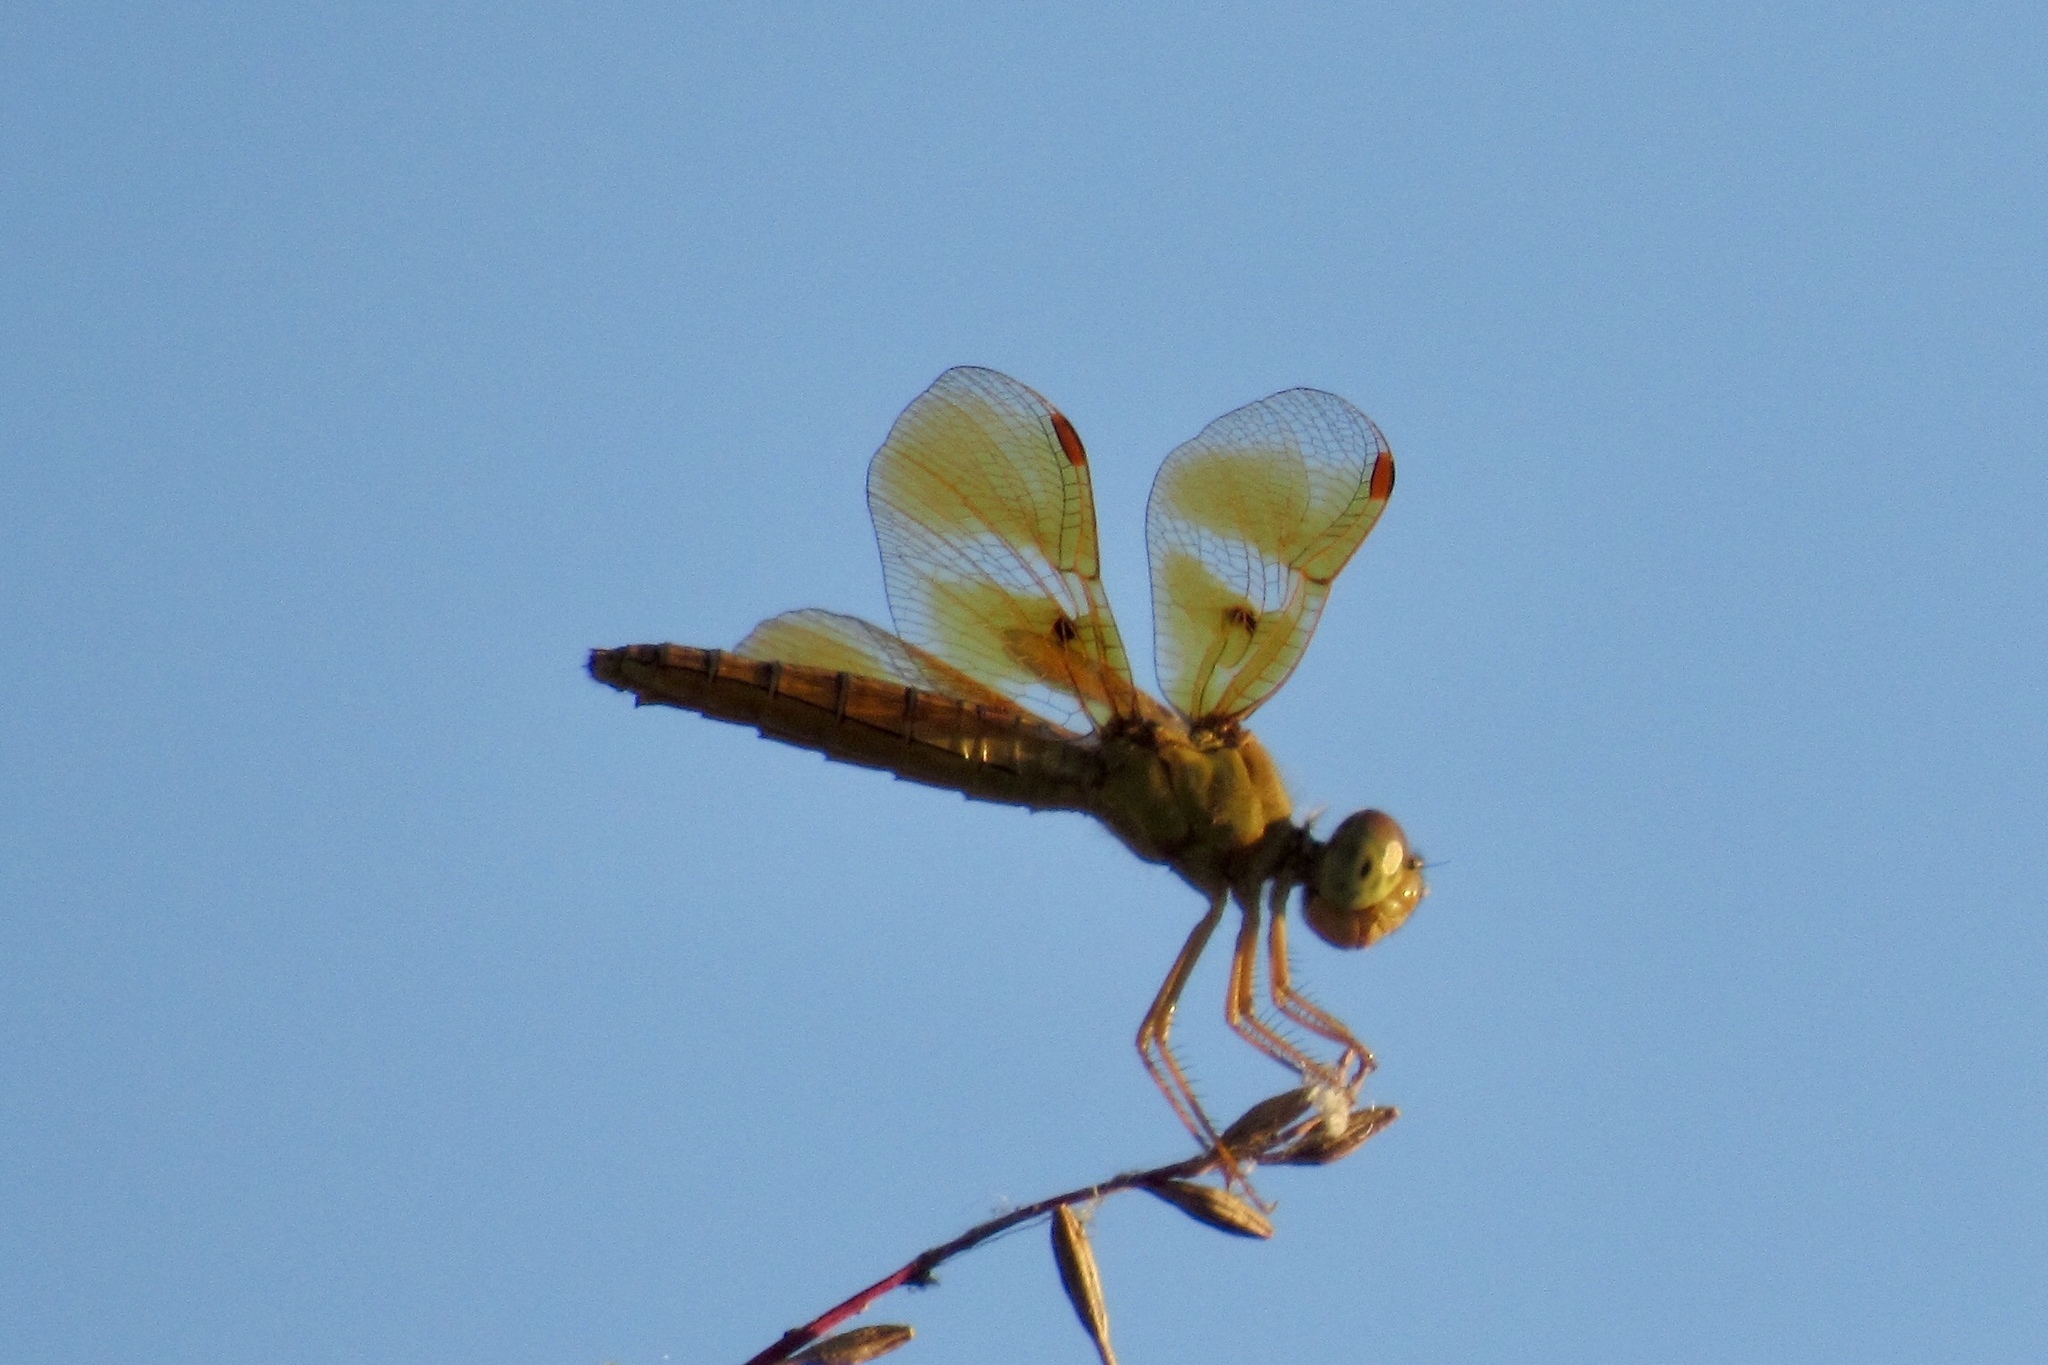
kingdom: Animalia
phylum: Arthropoda
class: Insecta
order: Odonata
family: Libellulidae
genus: Perithemis
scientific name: Perithemis intensa
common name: Mexican amberwing
